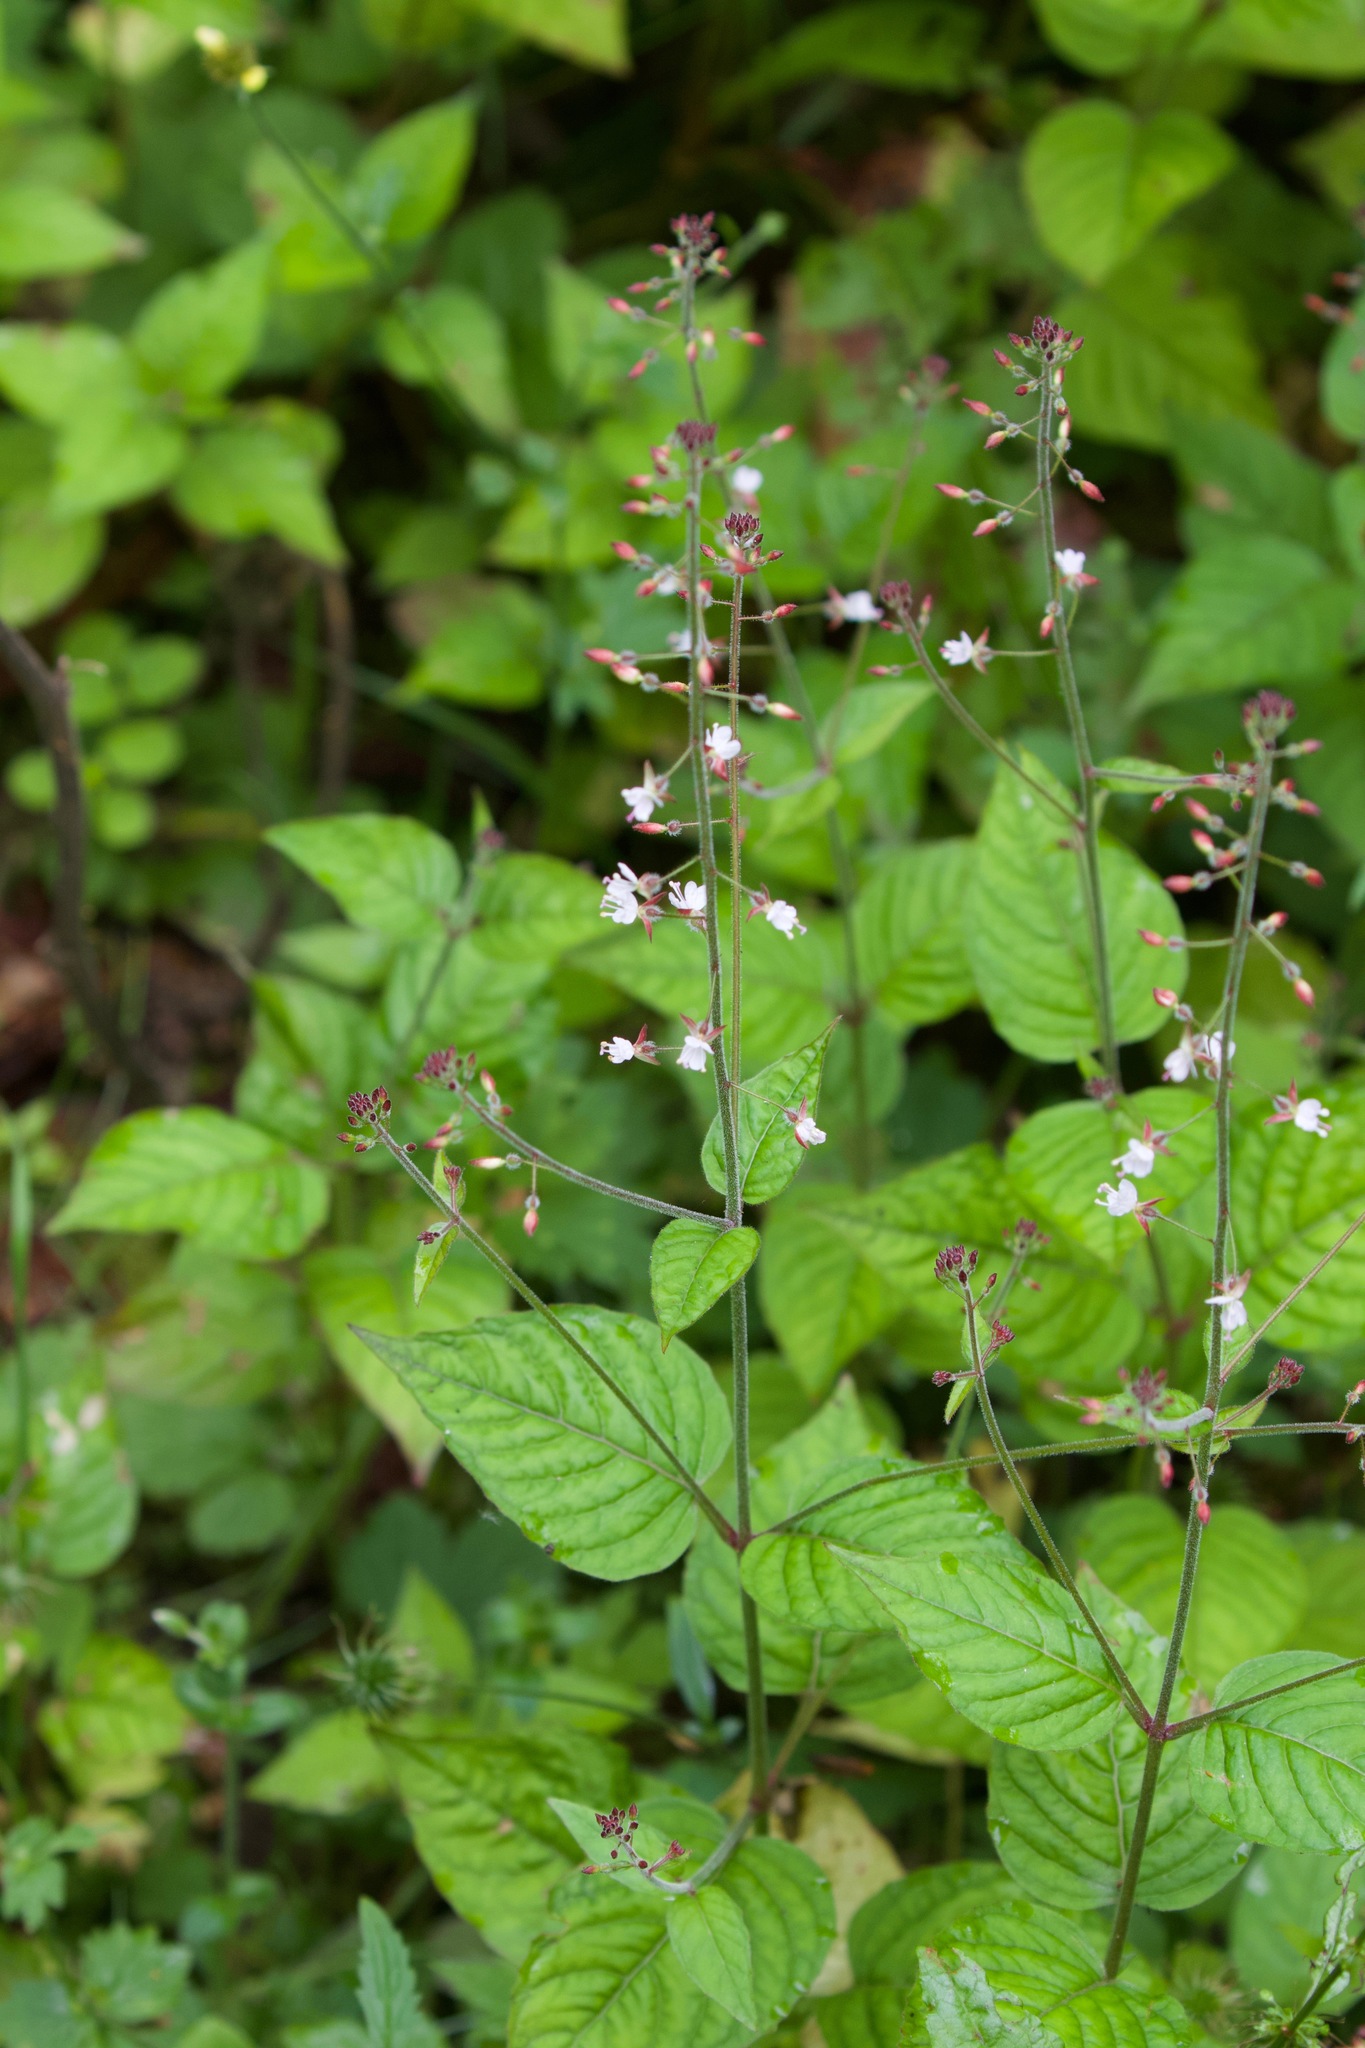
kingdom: Plantae
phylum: Tracheophyta
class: Magnoliopsida
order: Myrtales
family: Onagraceae
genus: Circaea
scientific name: Circaea lutetiana
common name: Enchanter's-nightshade
